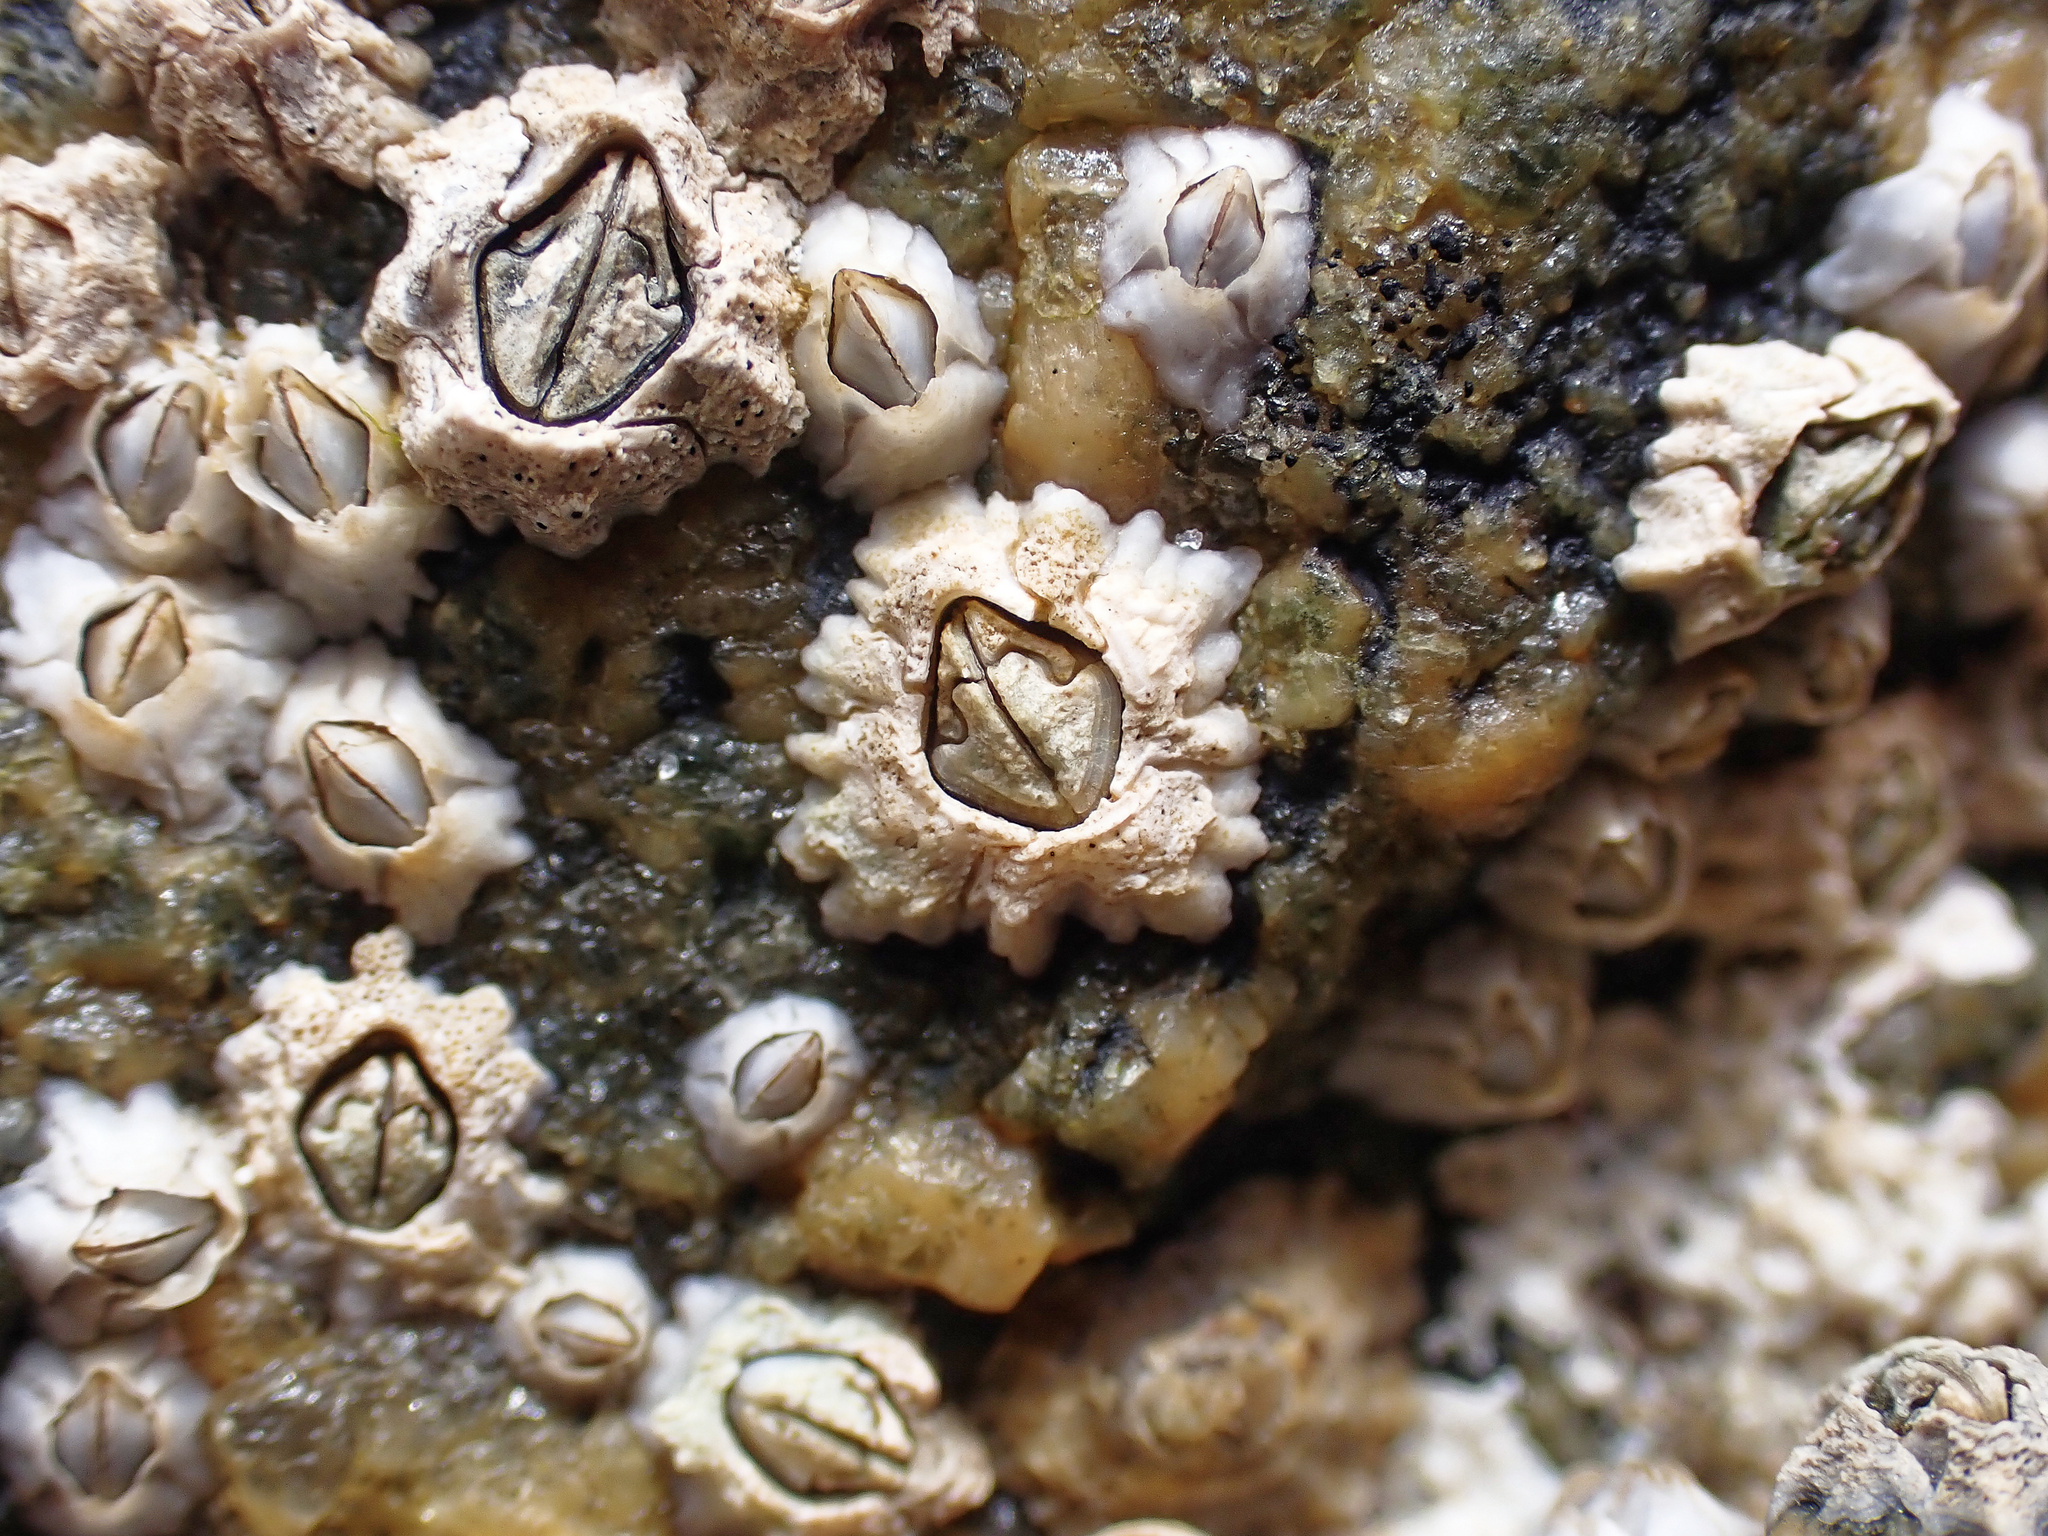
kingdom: Animalia
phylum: Arthropoda
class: Maxillopoda
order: Sessilia
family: Archaeobalanidae
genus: Semibalanus
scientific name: Semibalanus balanoides
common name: Acorn barnacle
